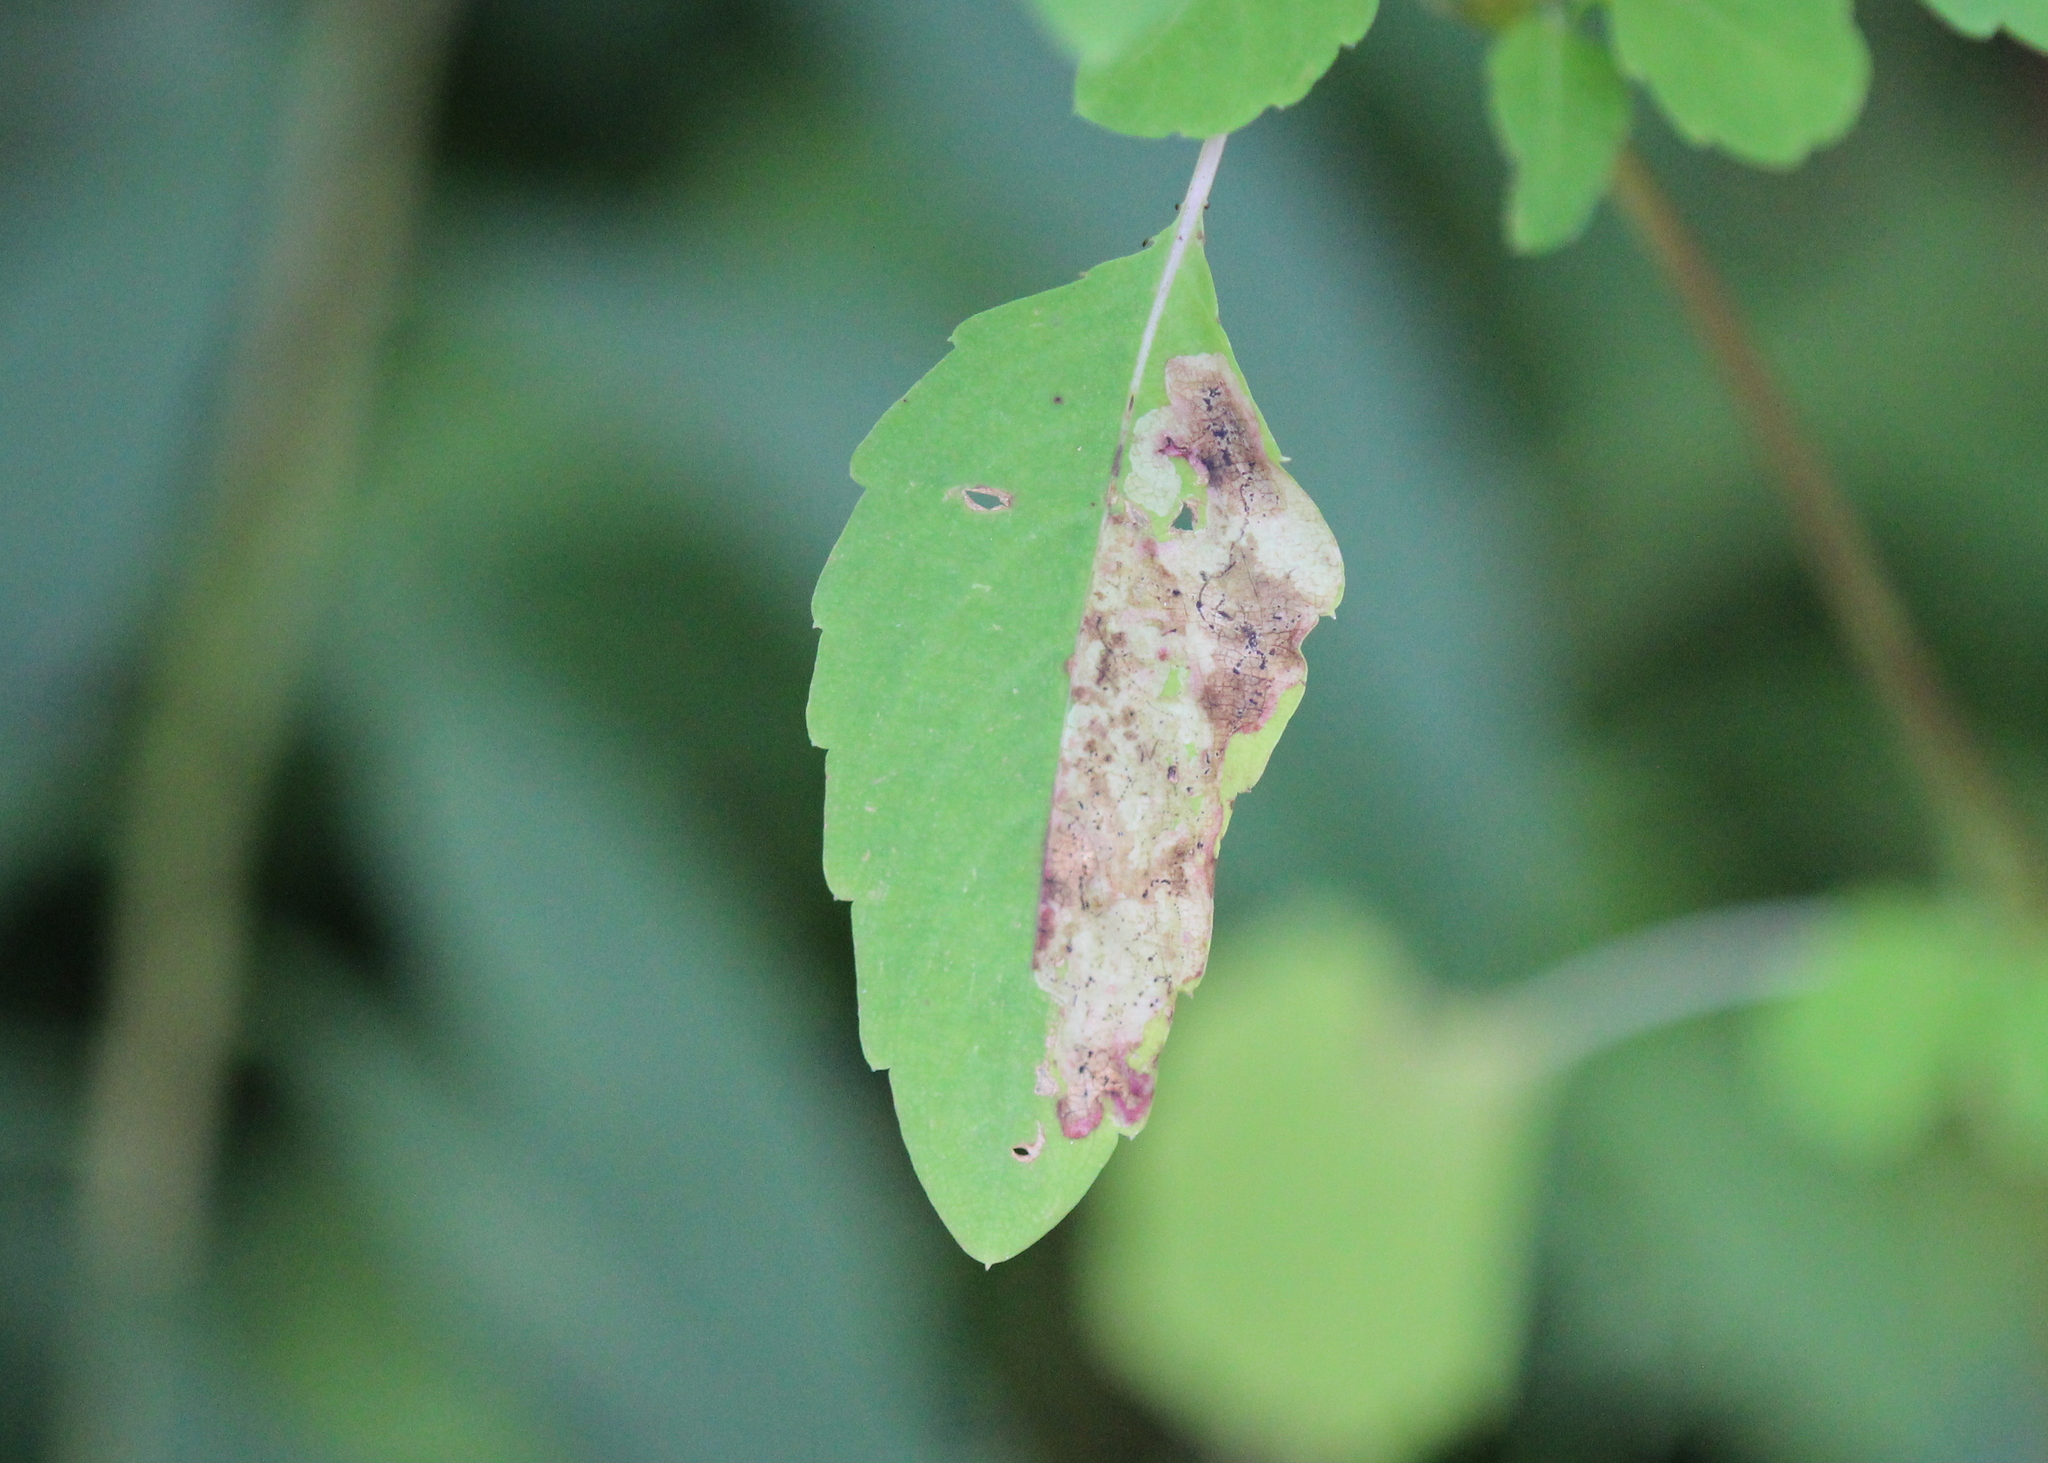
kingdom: Animalia
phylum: Arthropoda
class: Insecta
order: Diptera
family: Agromyzidae
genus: Phytoliriomyza
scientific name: Phytoliriomyza melampyga
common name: Jewelweed leaf-miner fly
